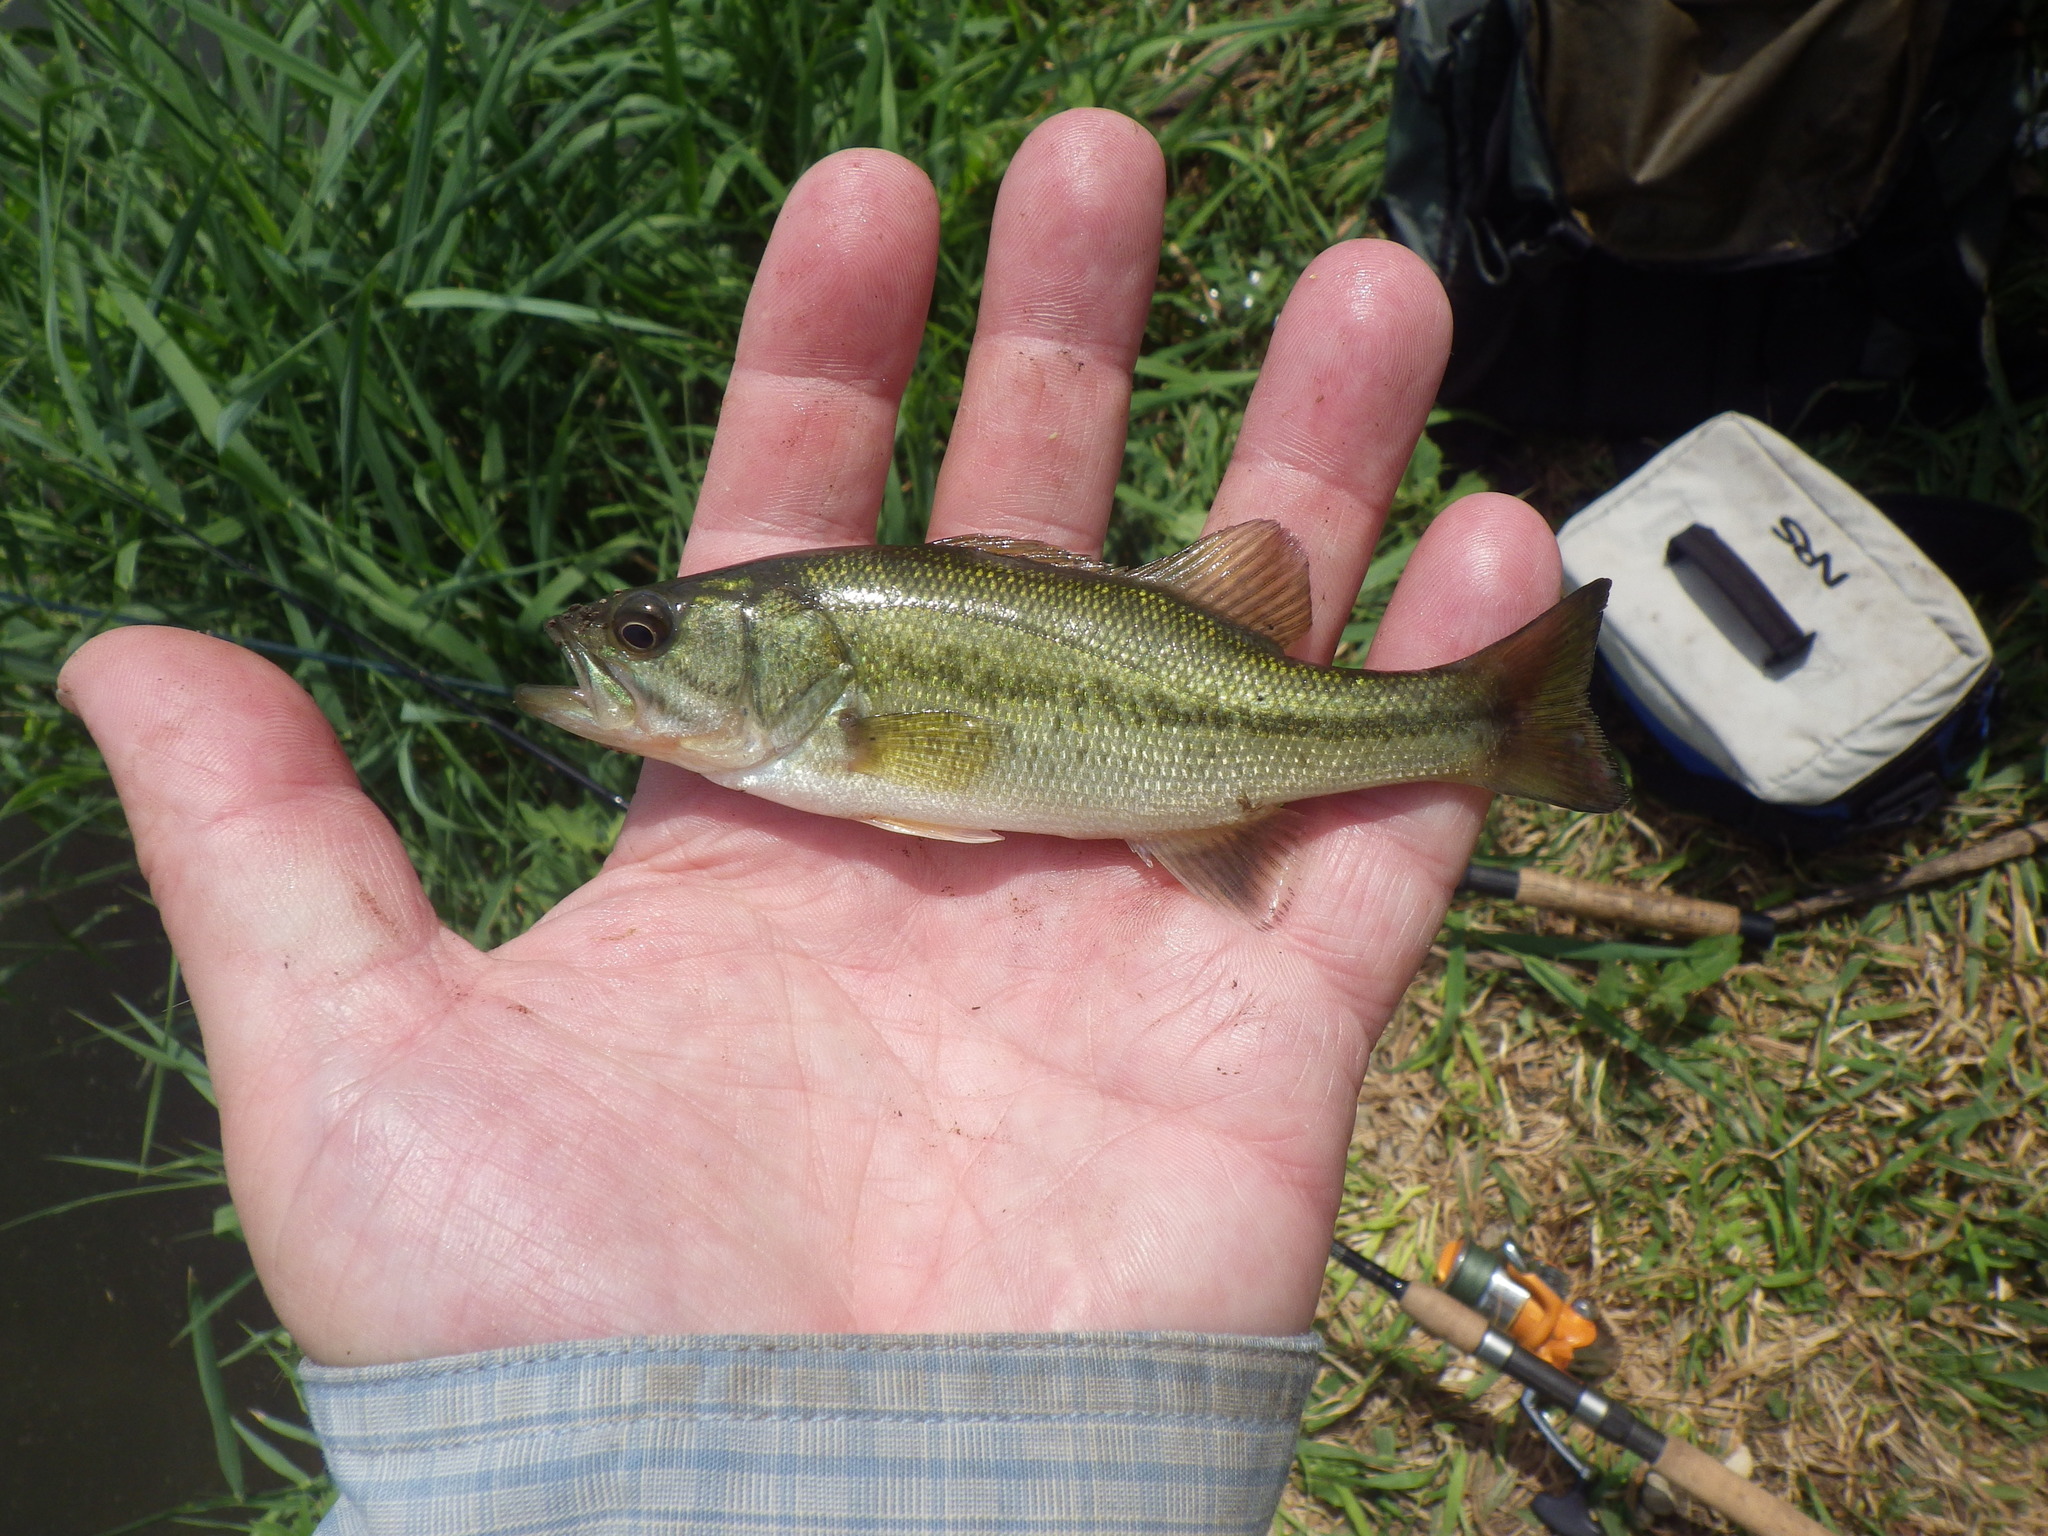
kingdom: Animalia
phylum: Chordata
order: Perciformes
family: Centrarchidae
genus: Micropterus
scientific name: Micropterus
